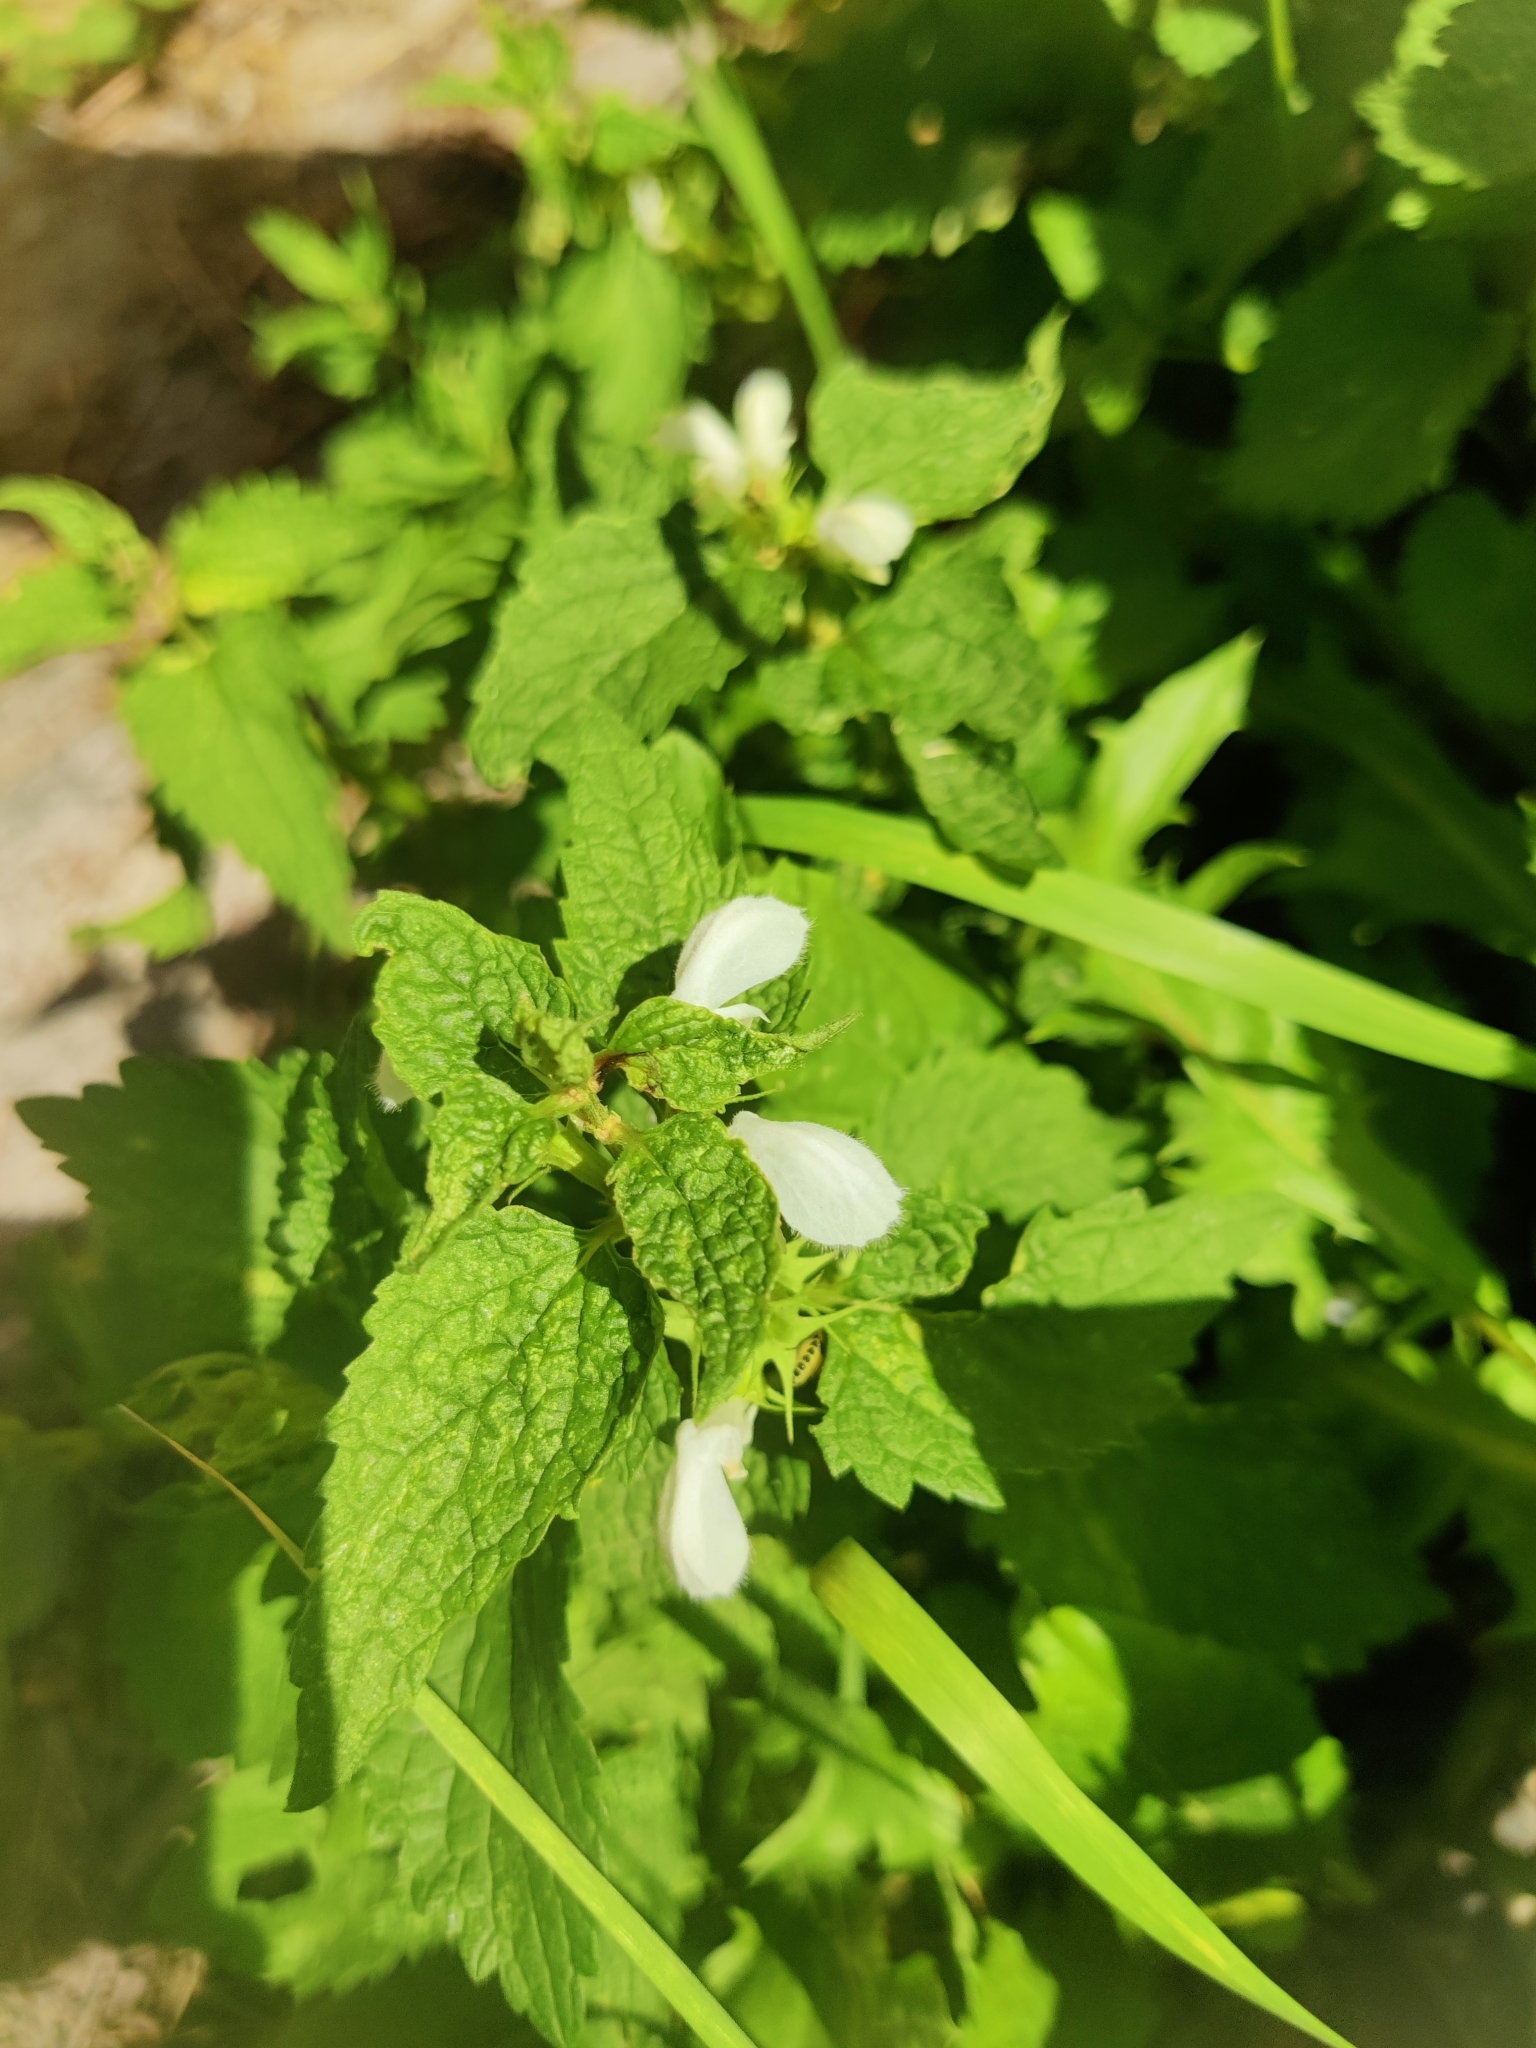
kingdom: Plantae
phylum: Tracheophyta
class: Magnoliopsida
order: Lamiales
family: Lamiaceae
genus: Lamium
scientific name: Lamium album
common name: White dead-nettle
